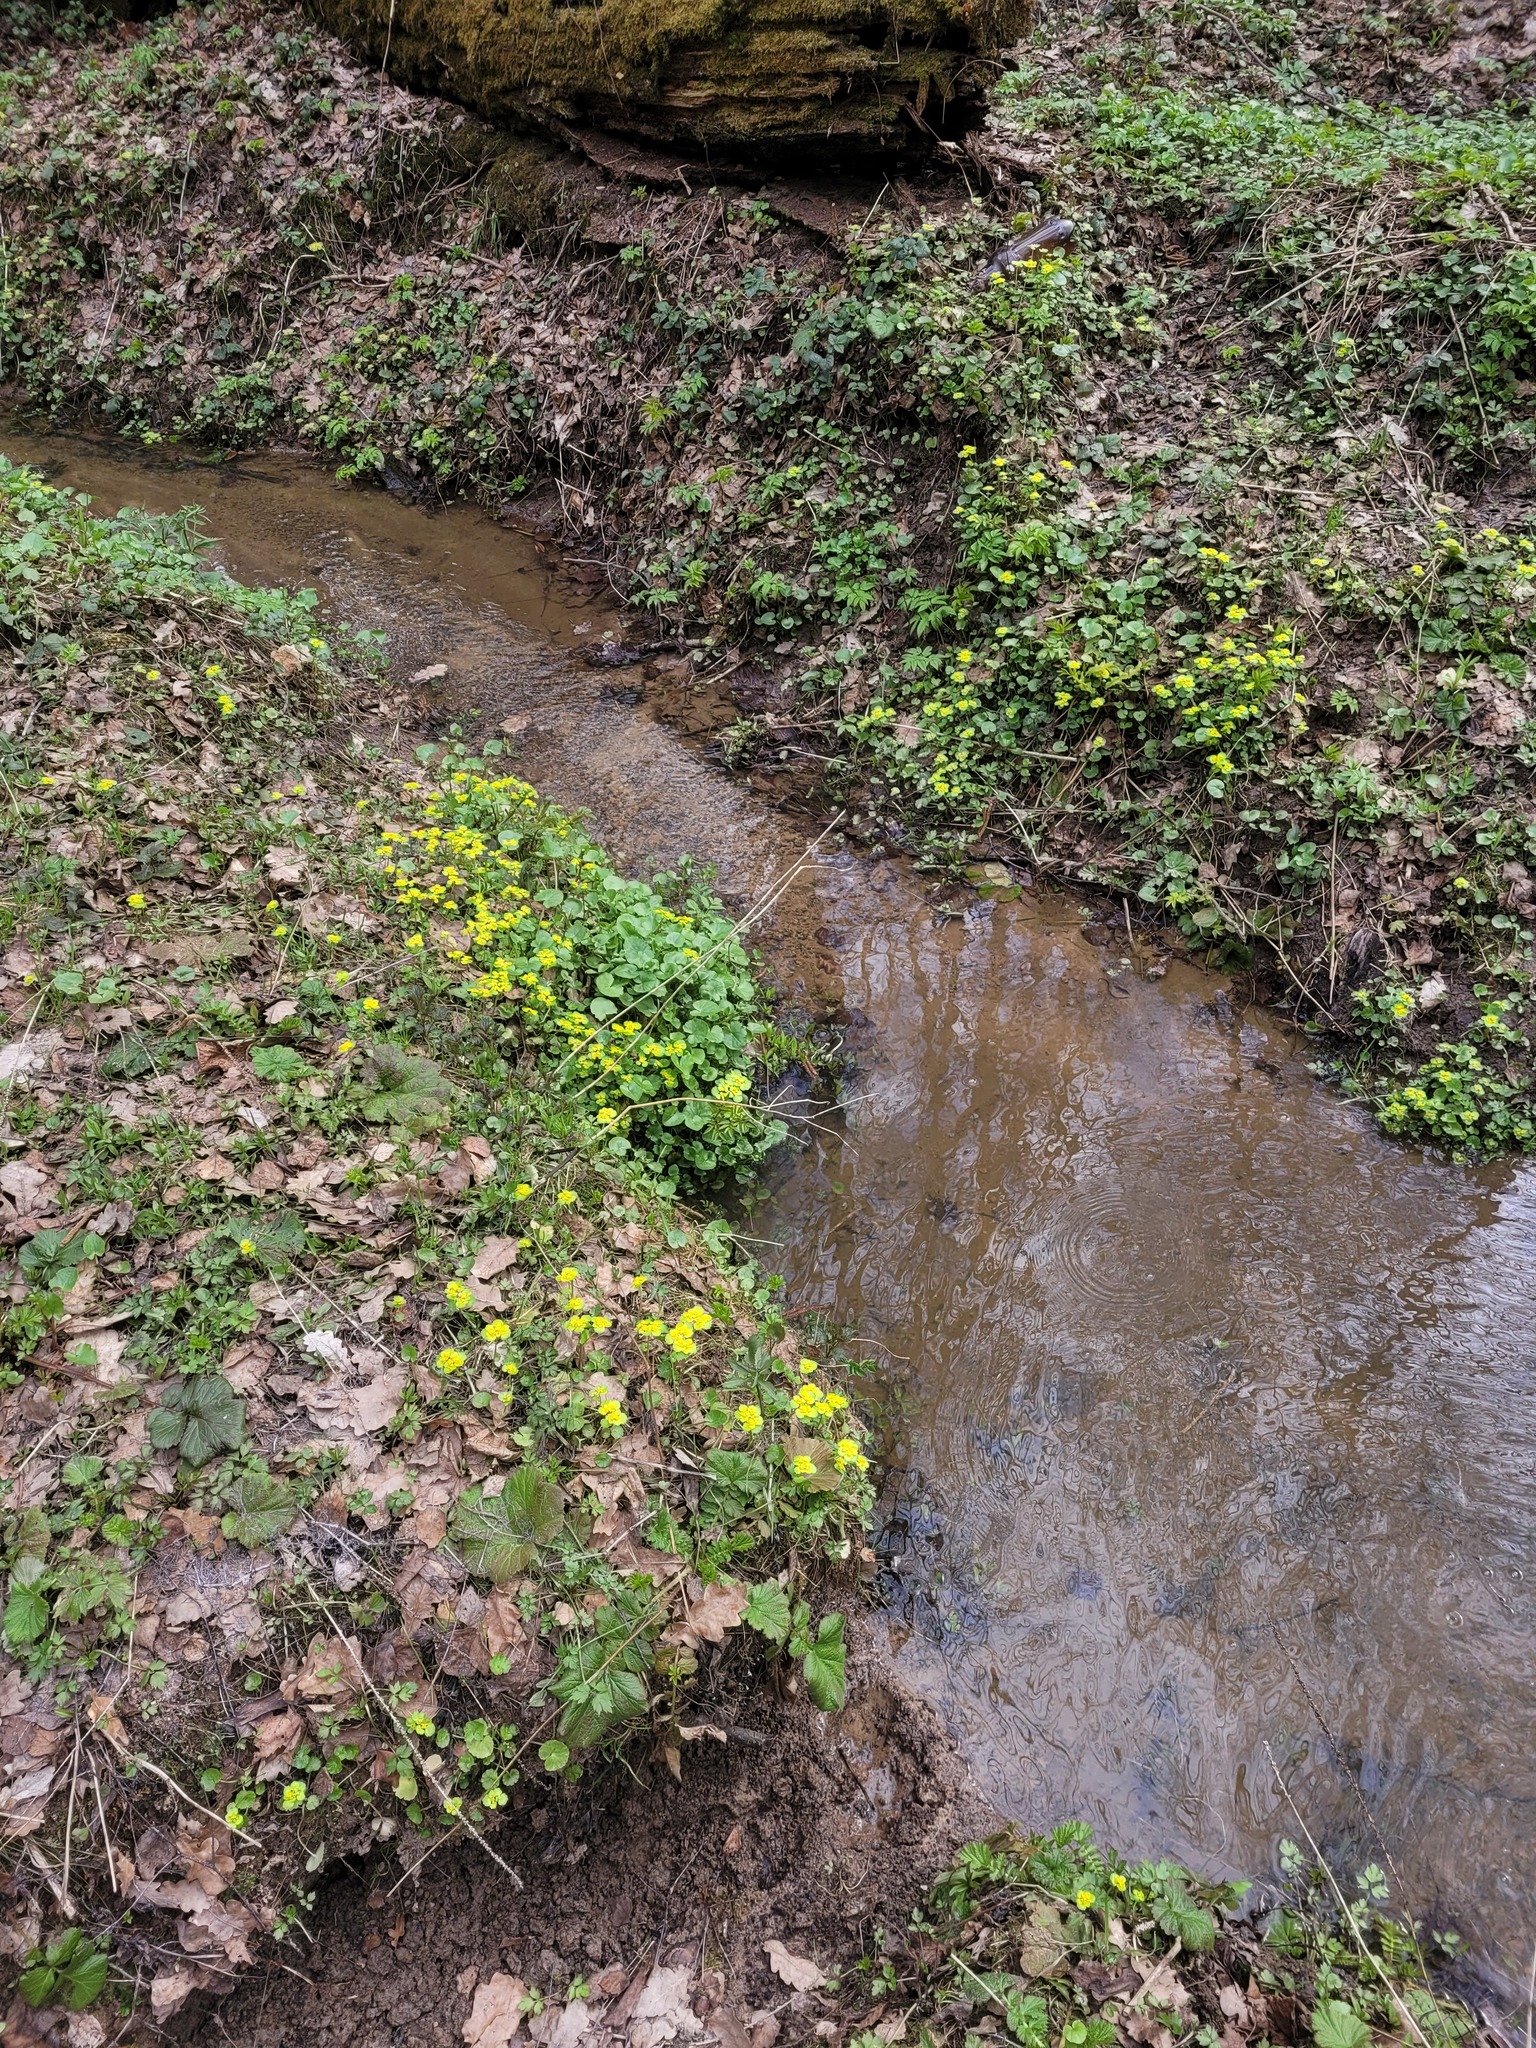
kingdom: Plantae
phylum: Tracheophyta
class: Magnoliopsida
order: Saxifragales
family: Saxifragaceae
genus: Chrysosplenium
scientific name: Chrysosplenium alternifolium
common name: Alternate-leaved golden-saxifrage
